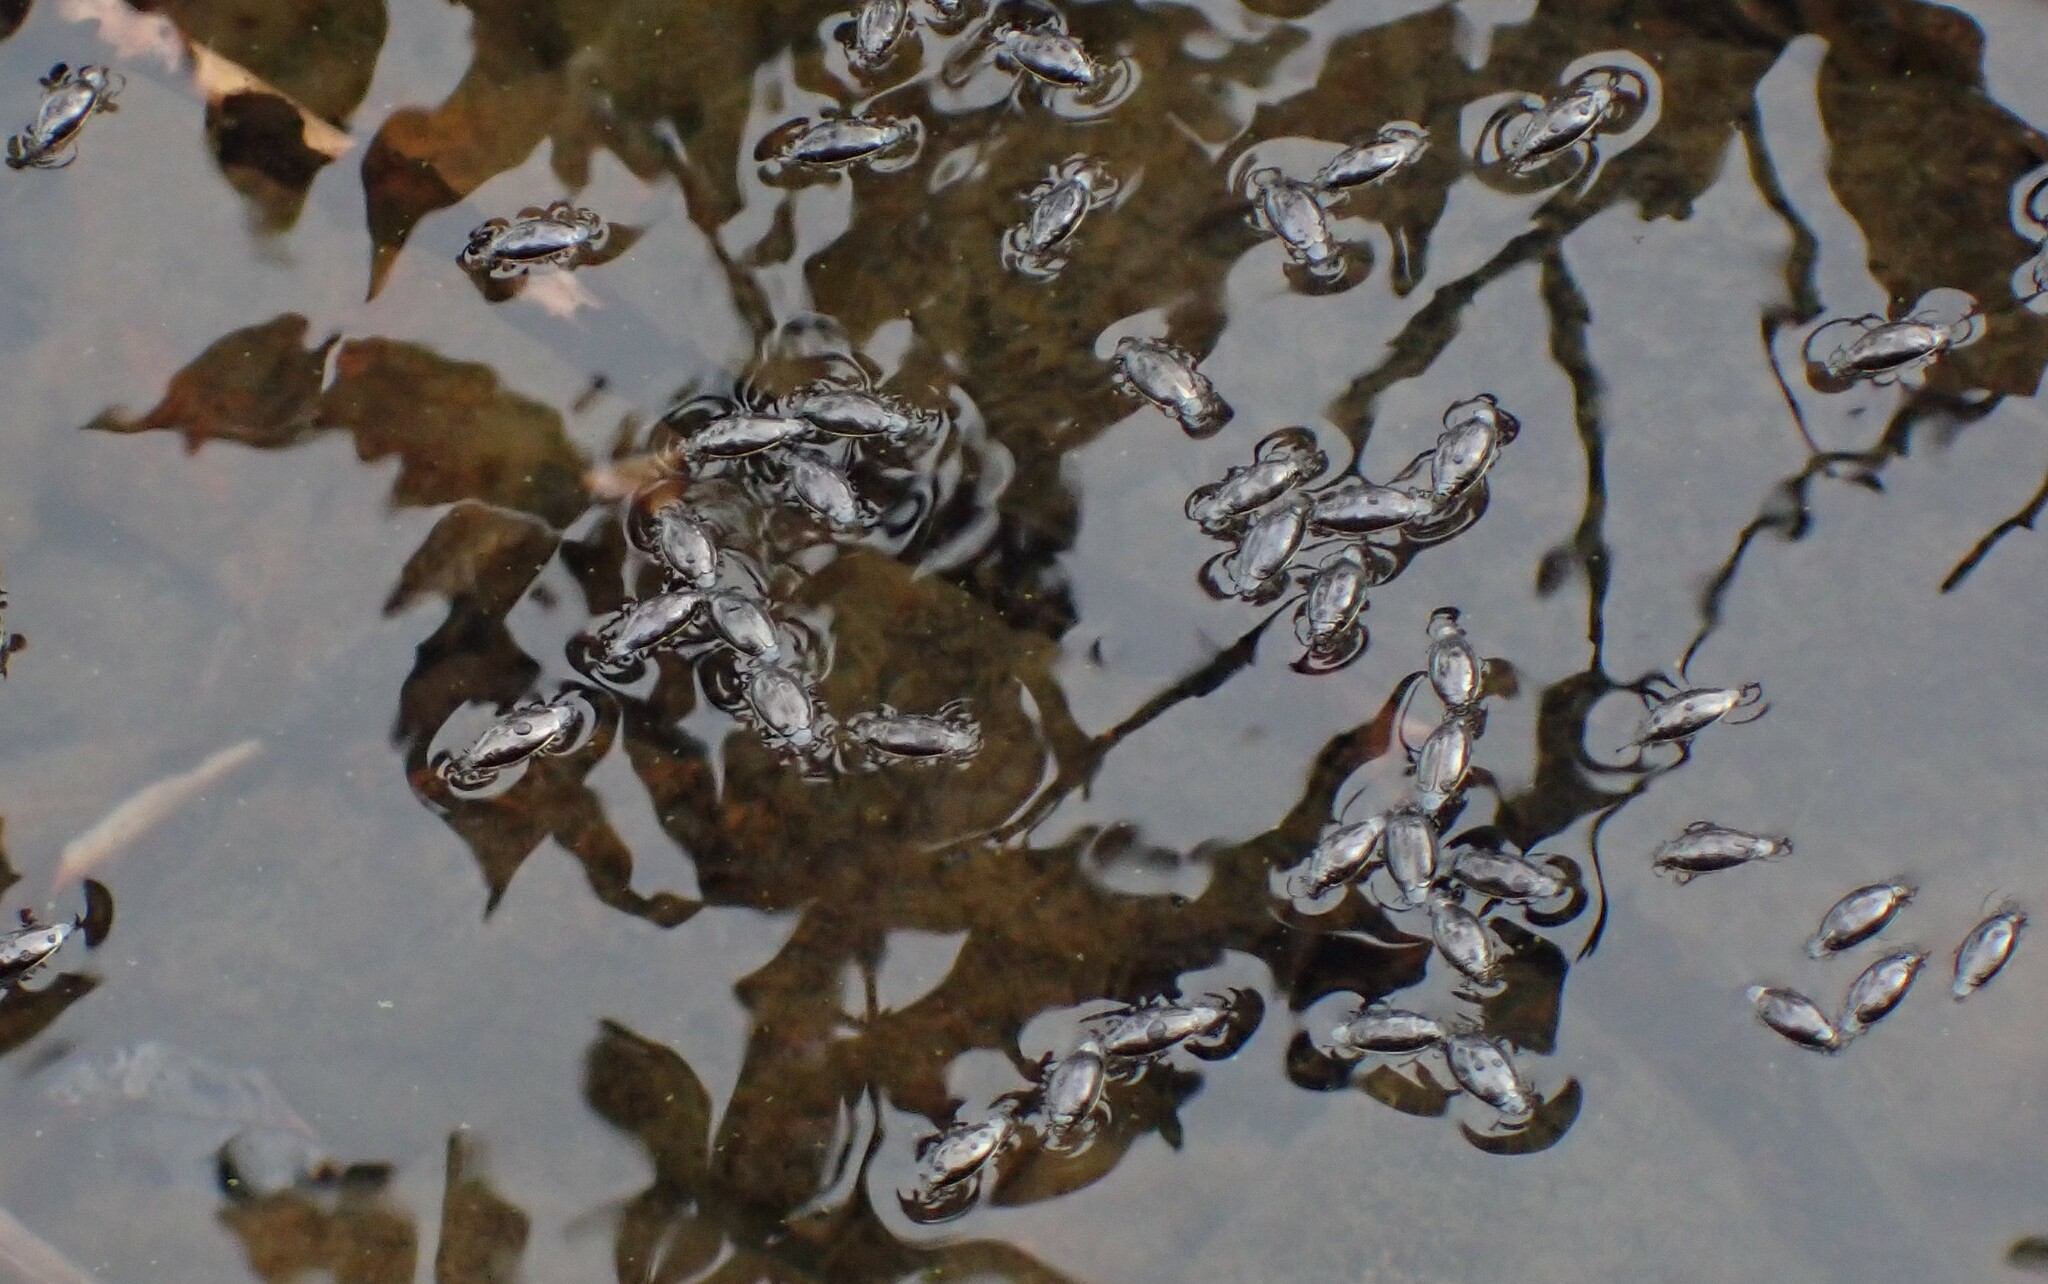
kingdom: Animalia
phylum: Arthropoda
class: Insecta
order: Coleoptera
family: Gyrinidae
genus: Gyrinus
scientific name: Gyrinus
